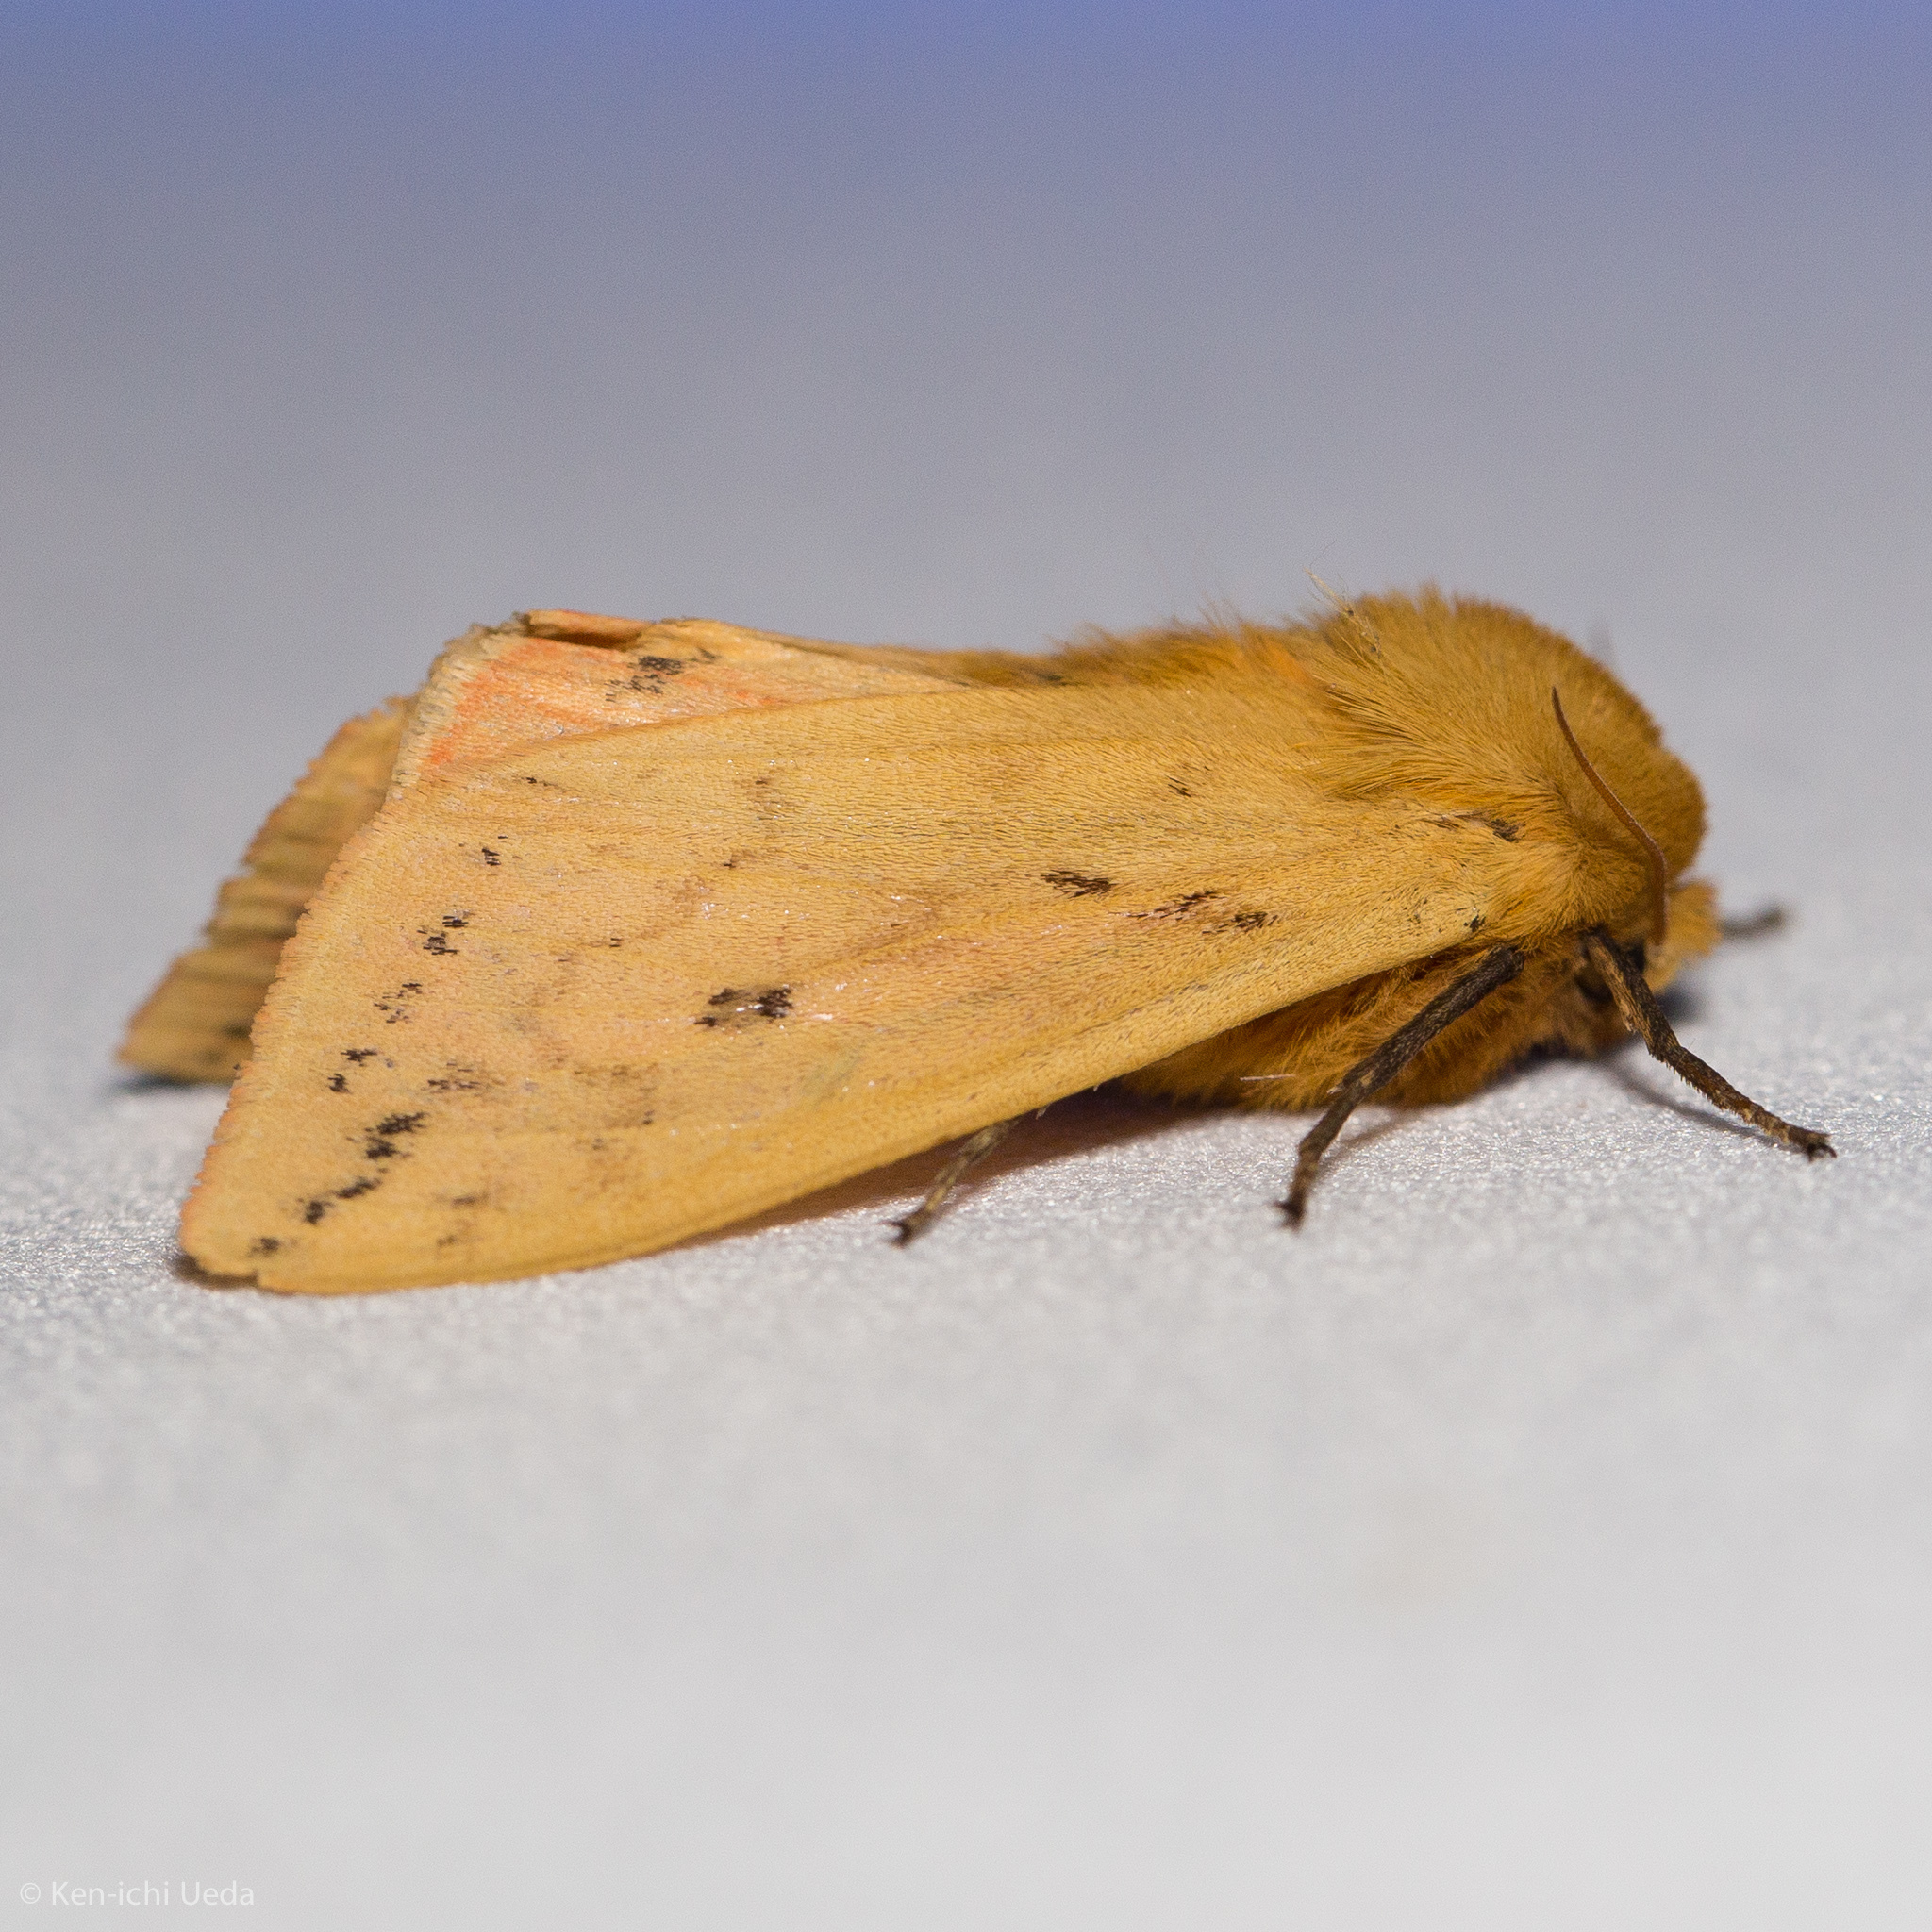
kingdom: Animalia
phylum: Arthropoda
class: Insecta
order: Lepidoptera
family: Erebidae
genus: Pyrrharctia
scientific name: Pyrrharctia isabella
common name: Isabella tiger moth
